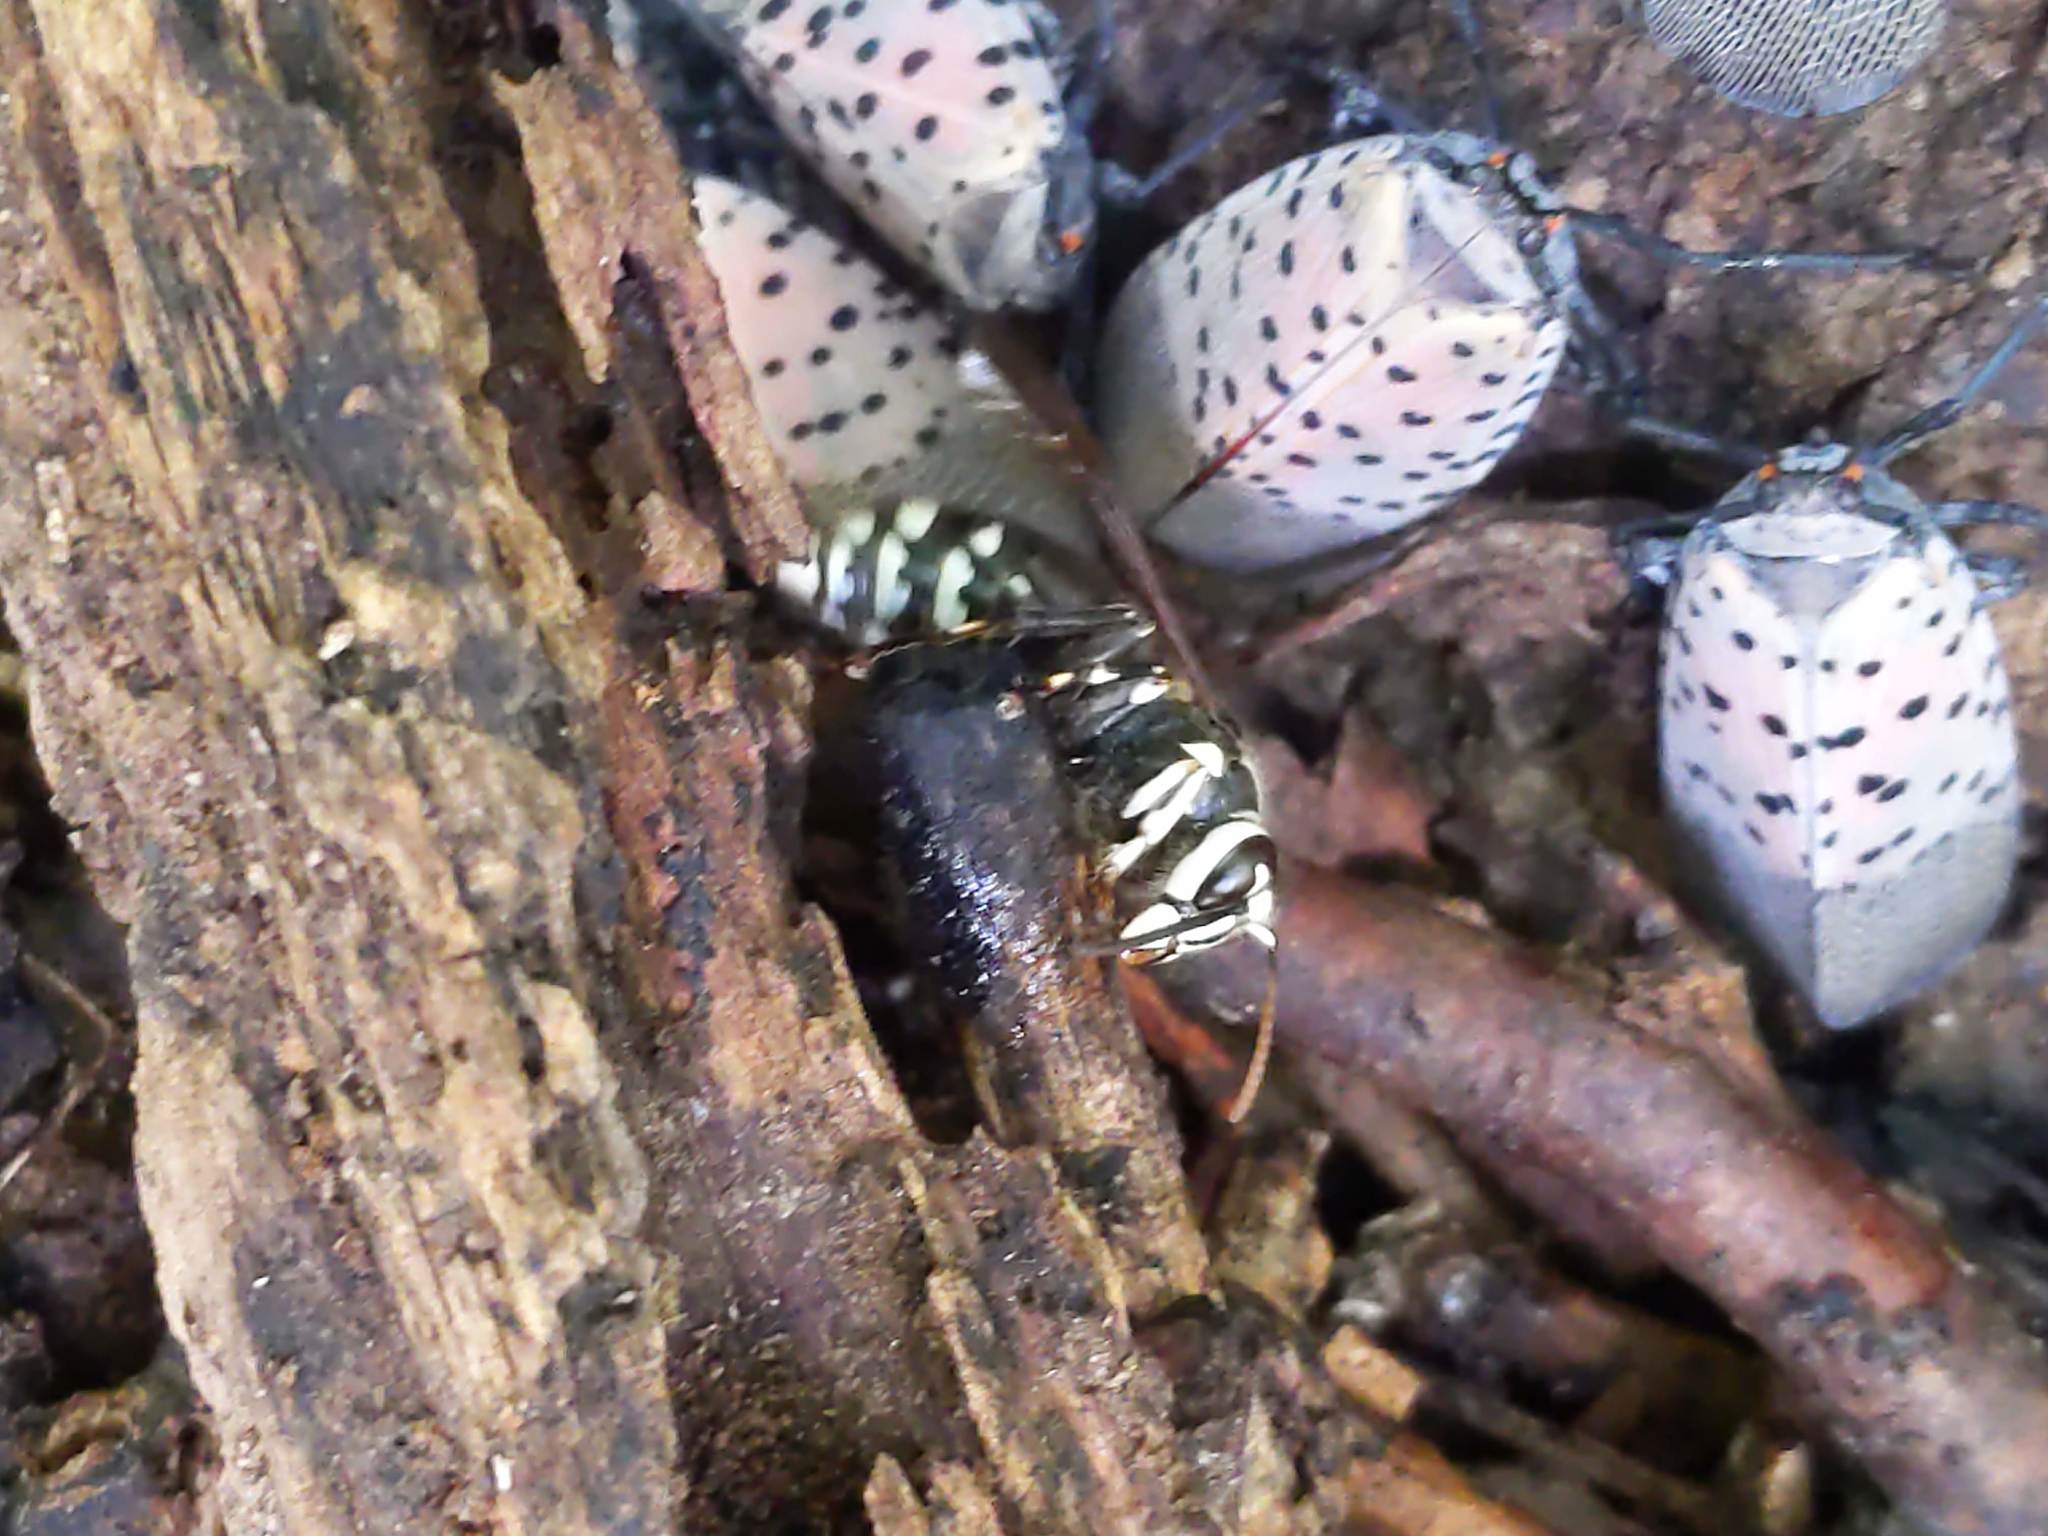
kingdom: Animalia
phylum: Arthropoda
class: Insecta
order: Hymenoptera
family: Vespidae
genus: Dolichovespula
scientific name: Dolichovespula maculata
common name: Bald-faced hornet
